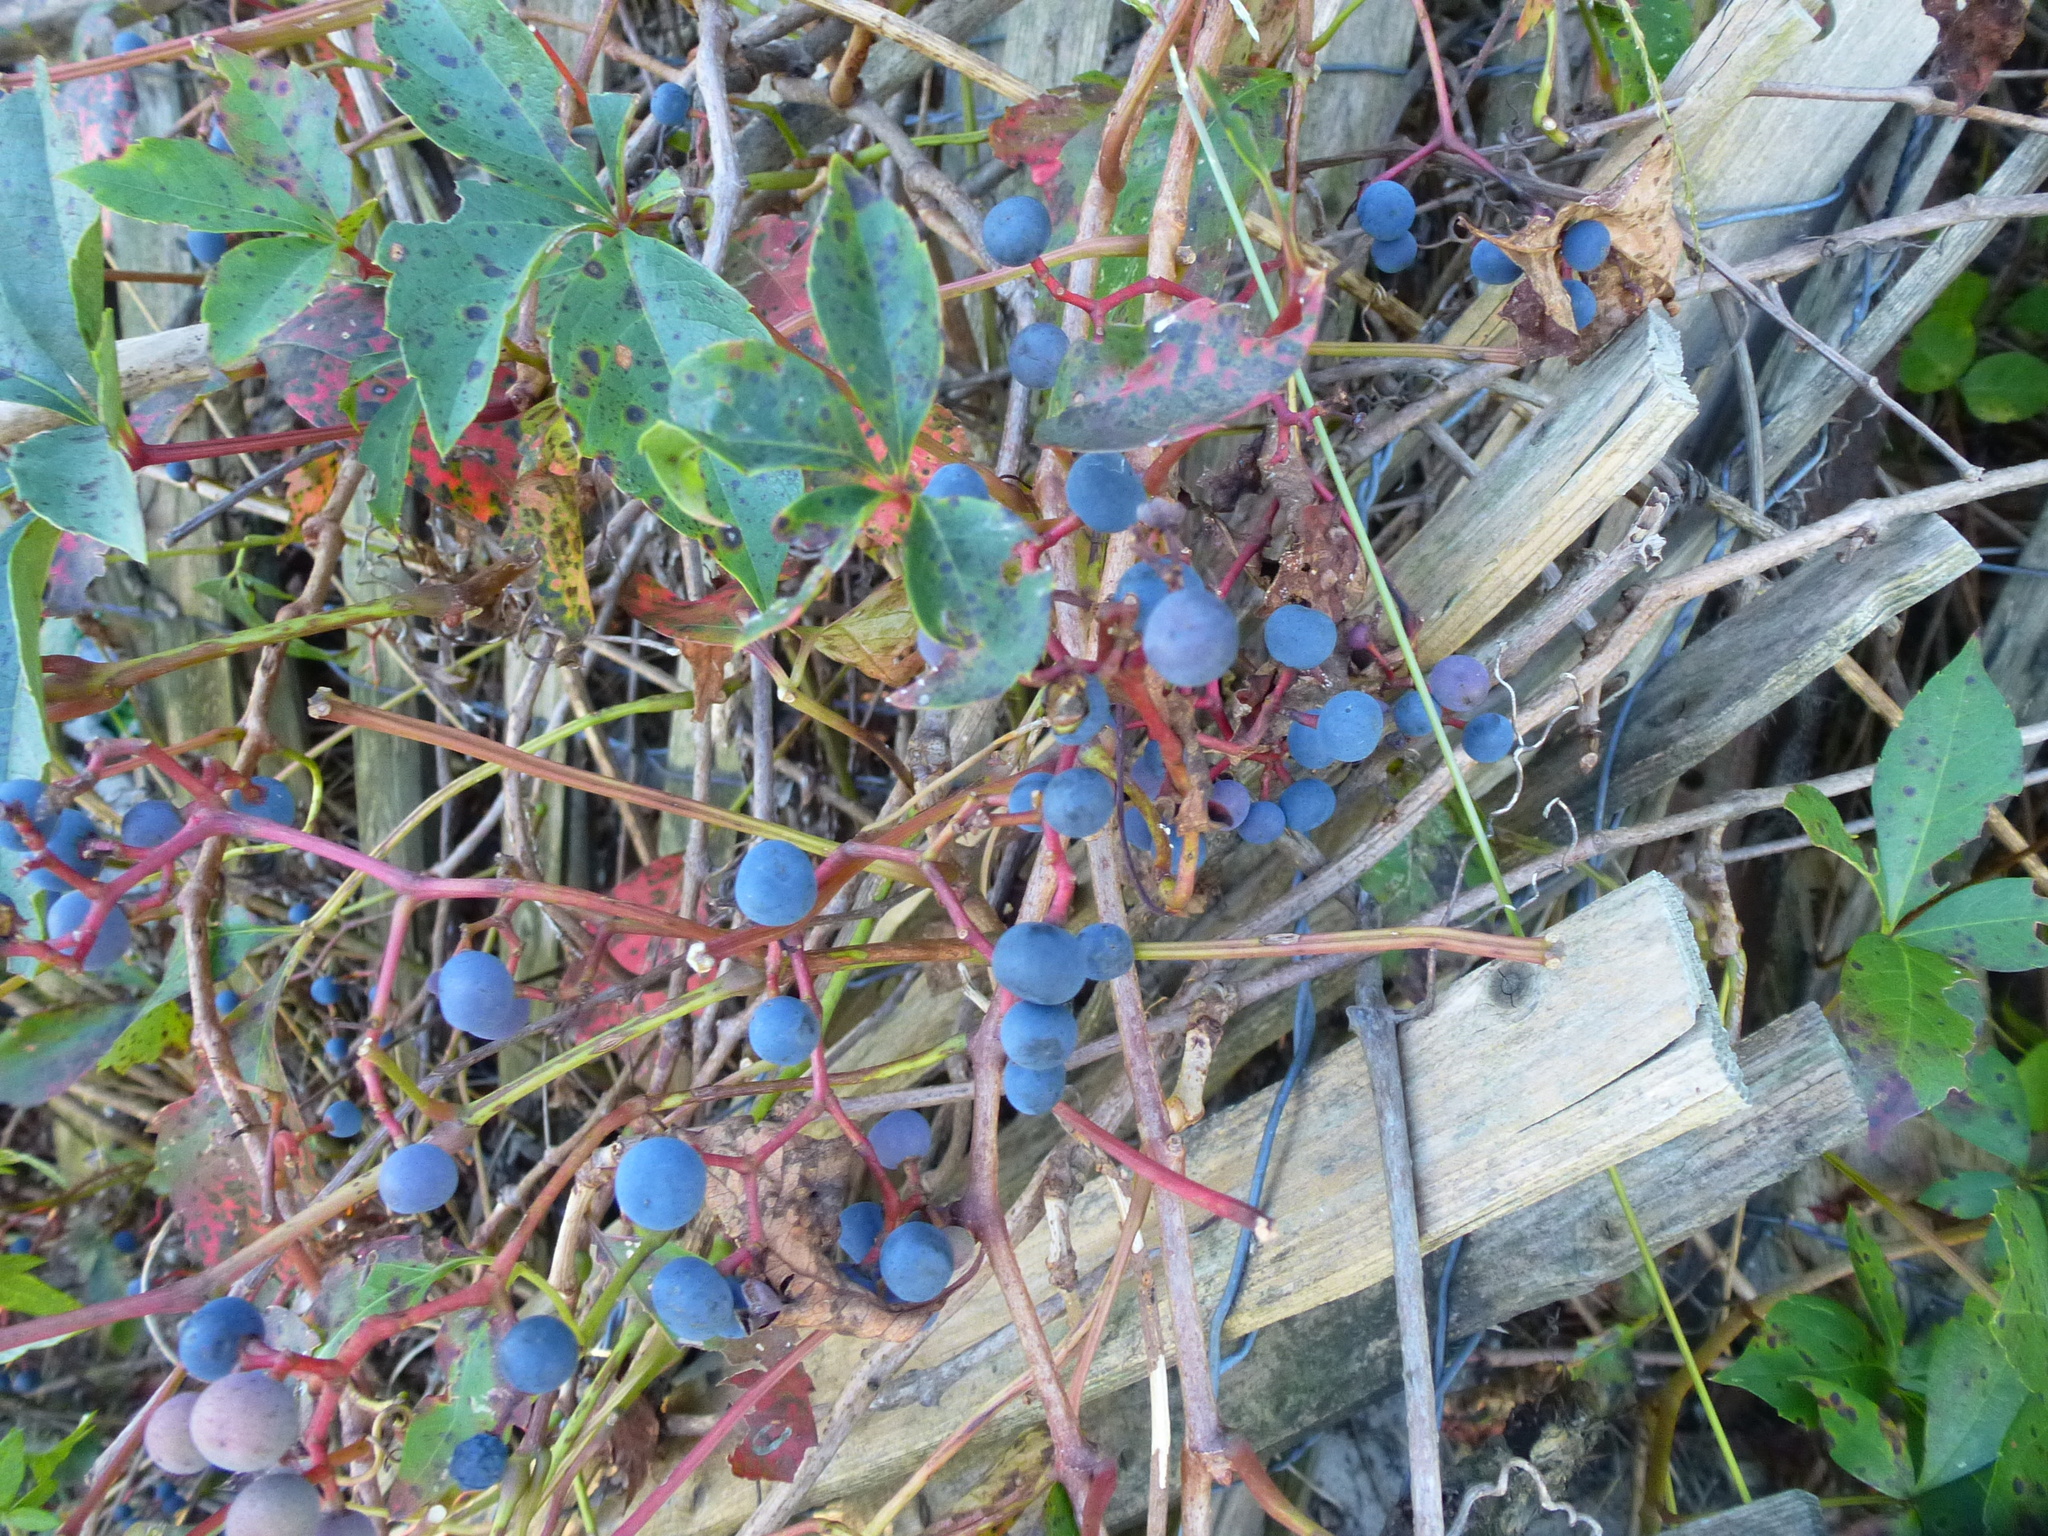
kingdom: Plantae
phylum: Tracheophyta
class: Magnoliopsida
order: Vitales
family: Vitaceae
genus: Parthenocissus
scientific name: Parthenocissus quinquefolia
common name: Virginia-creeper
